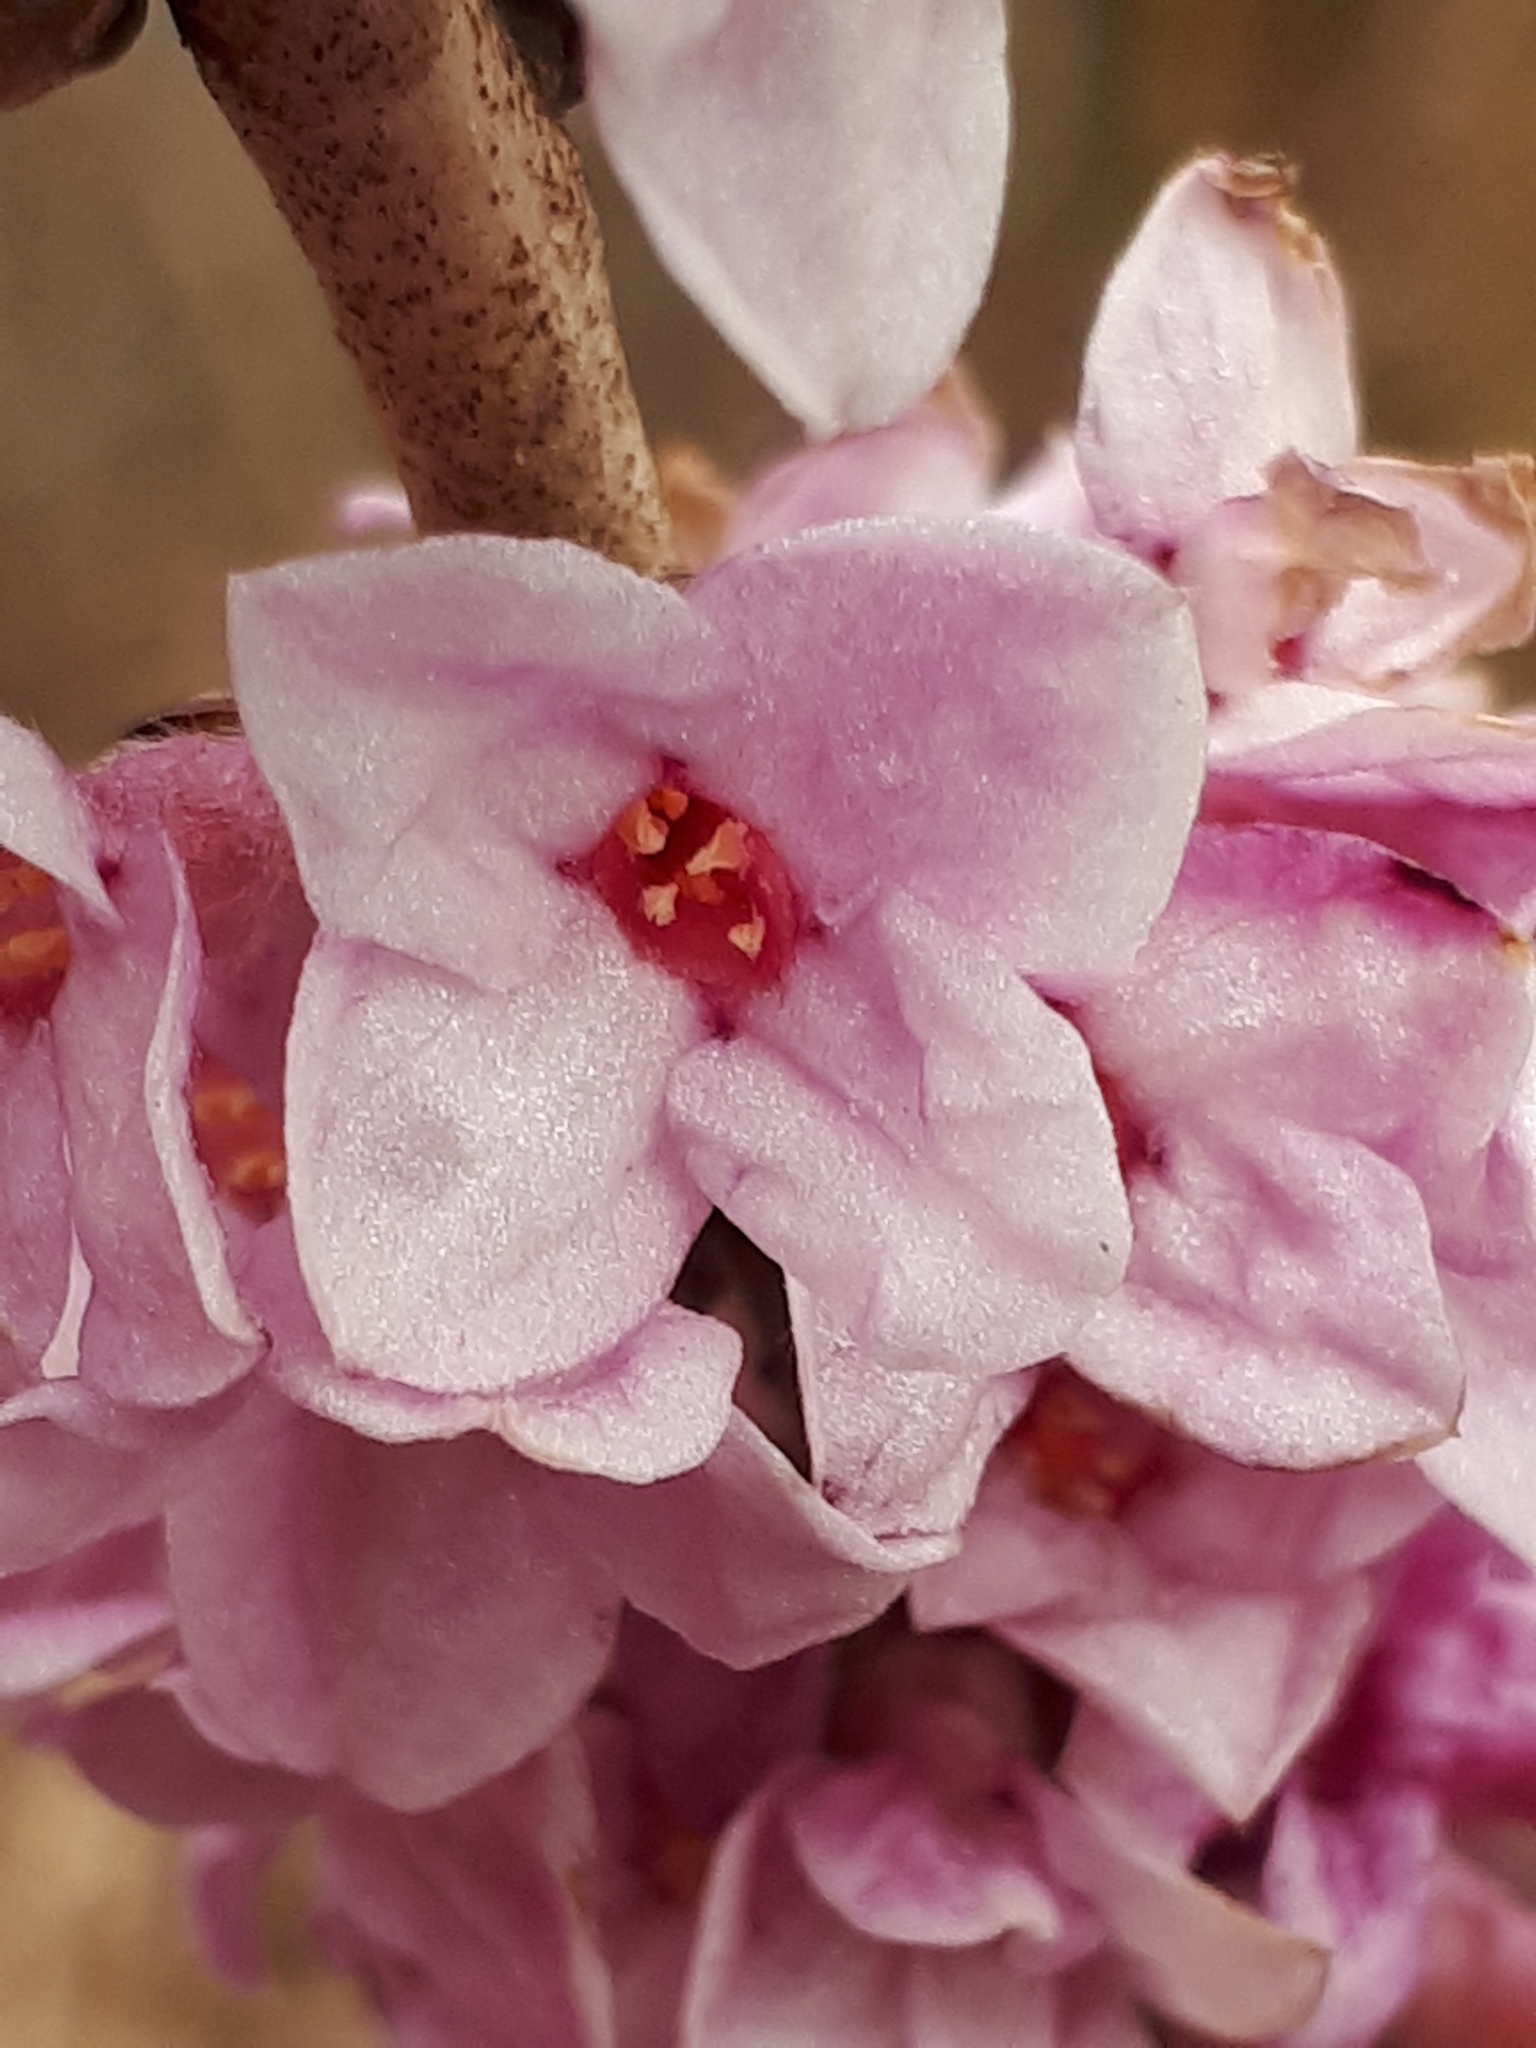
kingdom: Plantae
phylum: Tracheophyta
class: Magnoliopsida
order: Malvales
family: Thymelaeaceae
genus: Daphne
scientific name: Daphne mezereum
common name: Mezereon
